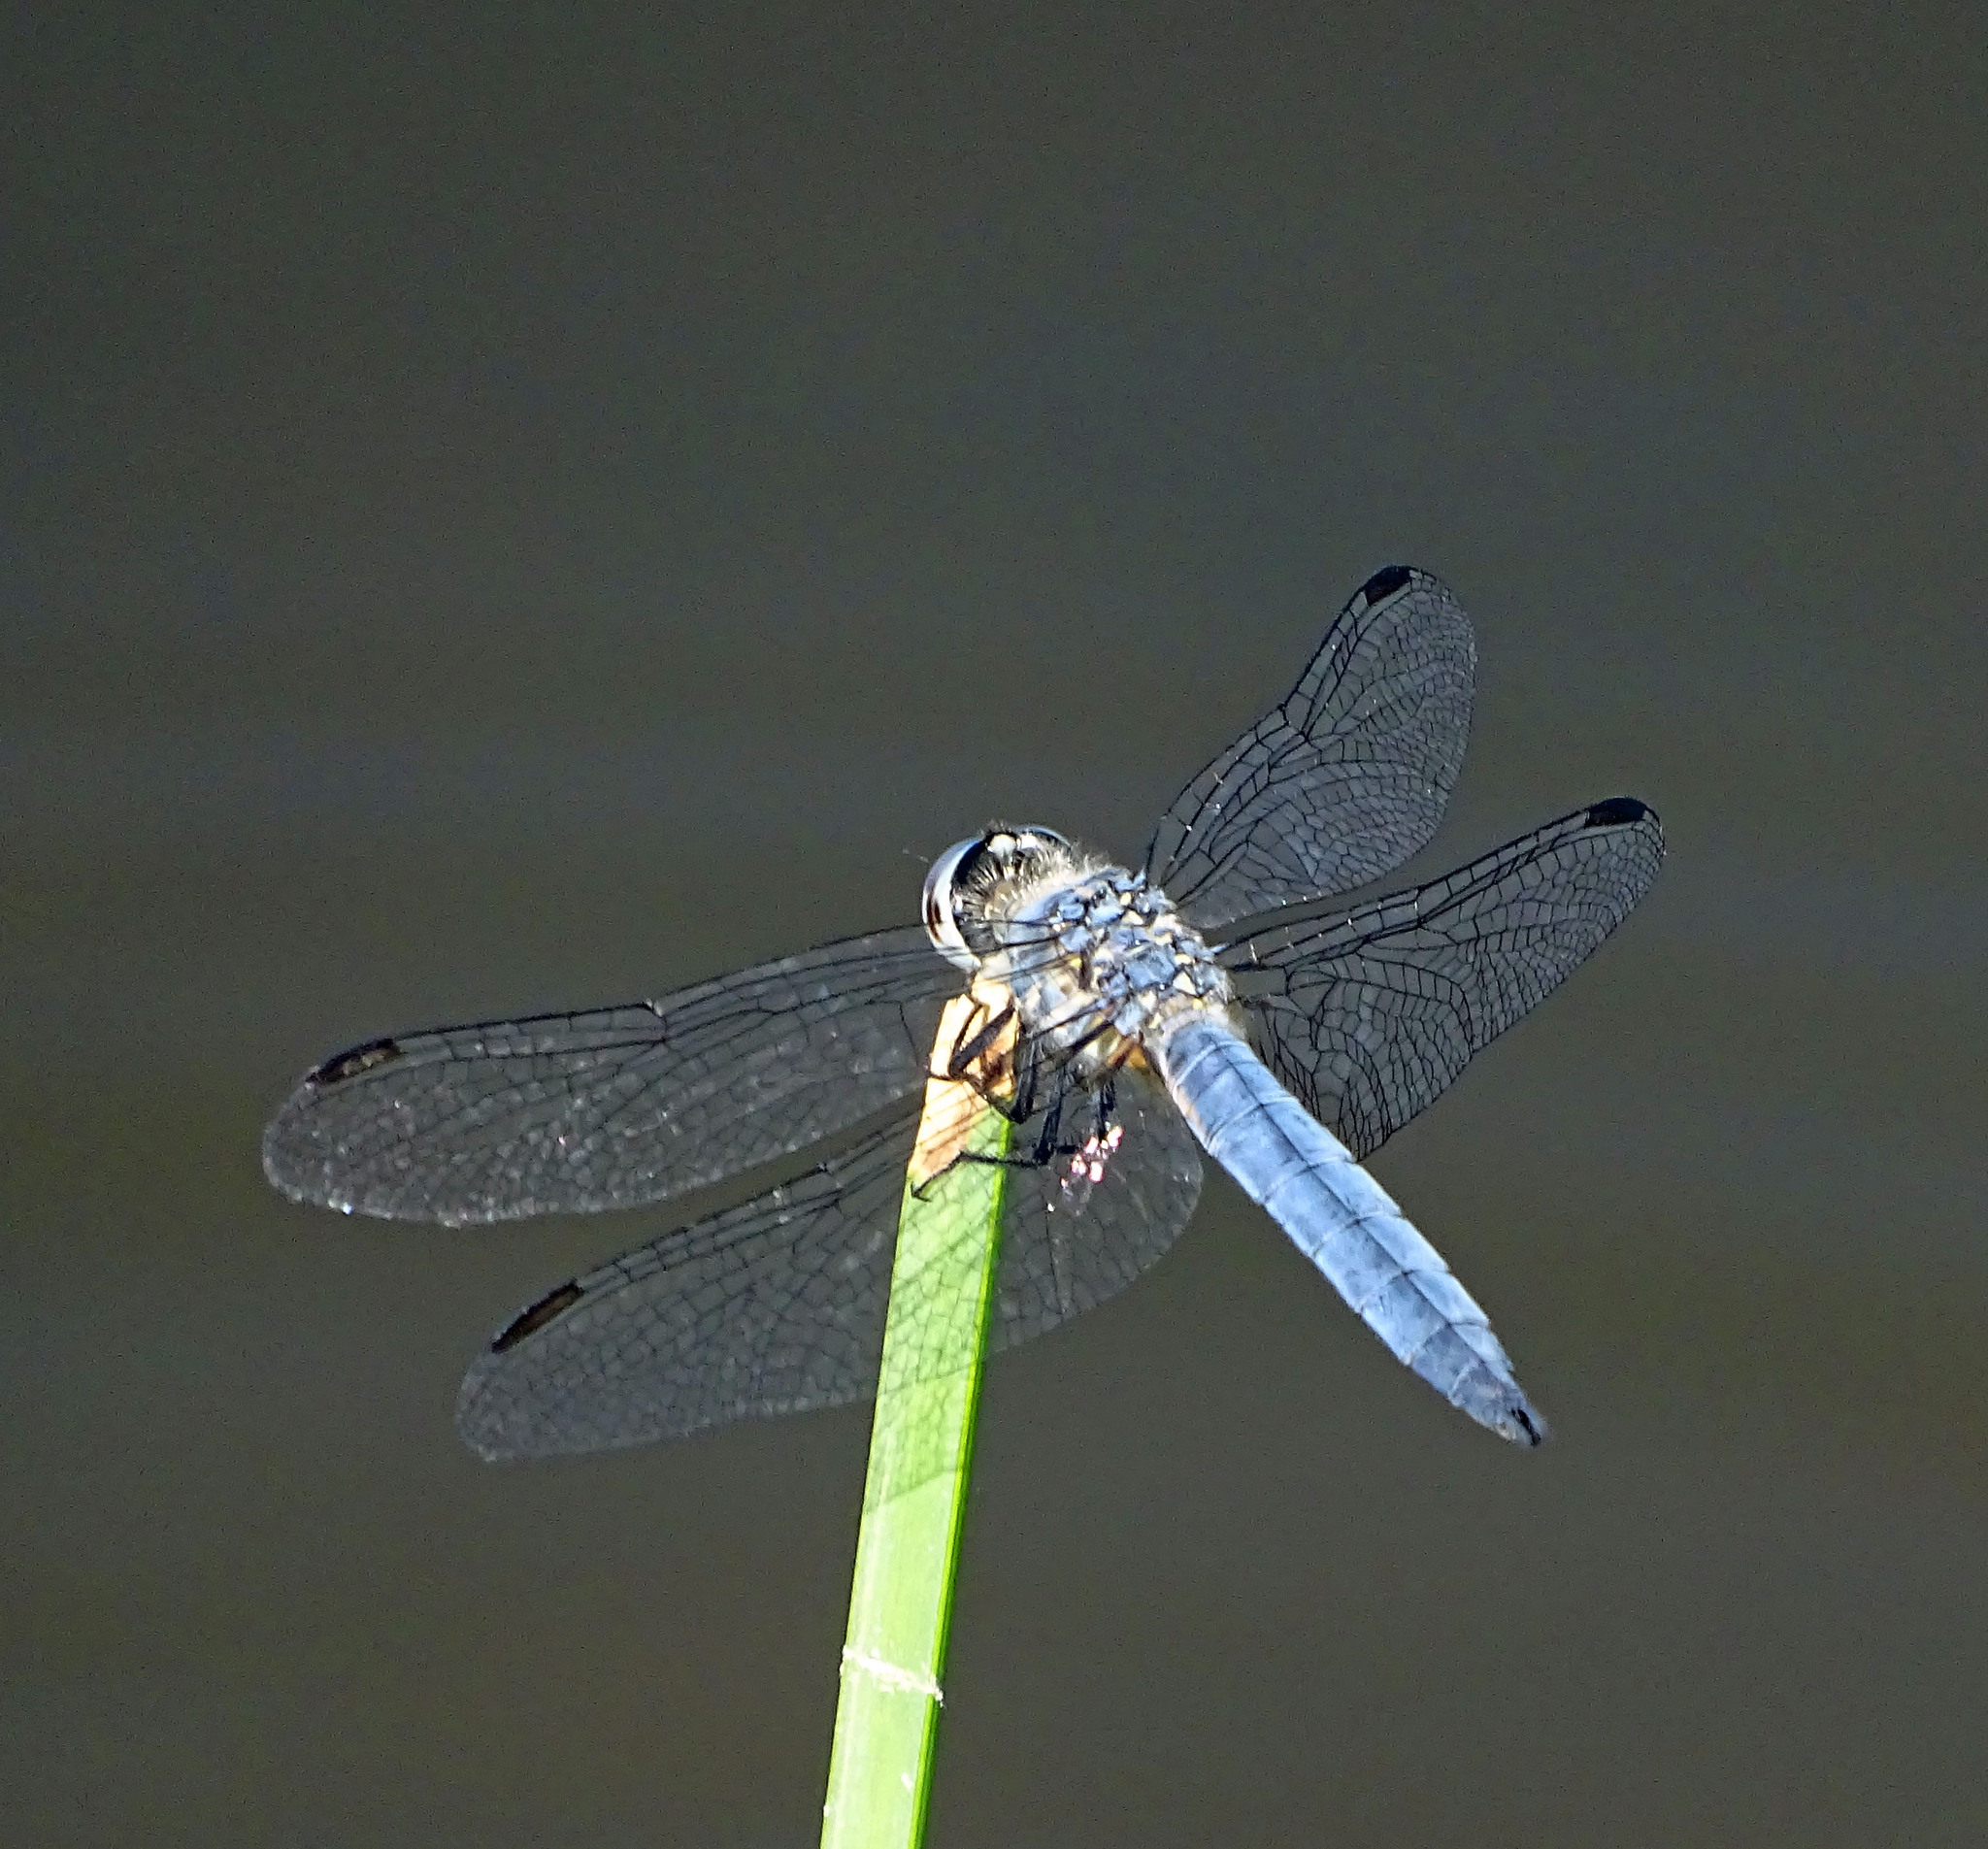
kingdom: Animalia
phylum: Arthropoda
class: Insecta
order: Odonata
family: Libellulidae
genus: Pachydiplax
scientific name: Pachydiplax longipennis
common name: Blue dasher
